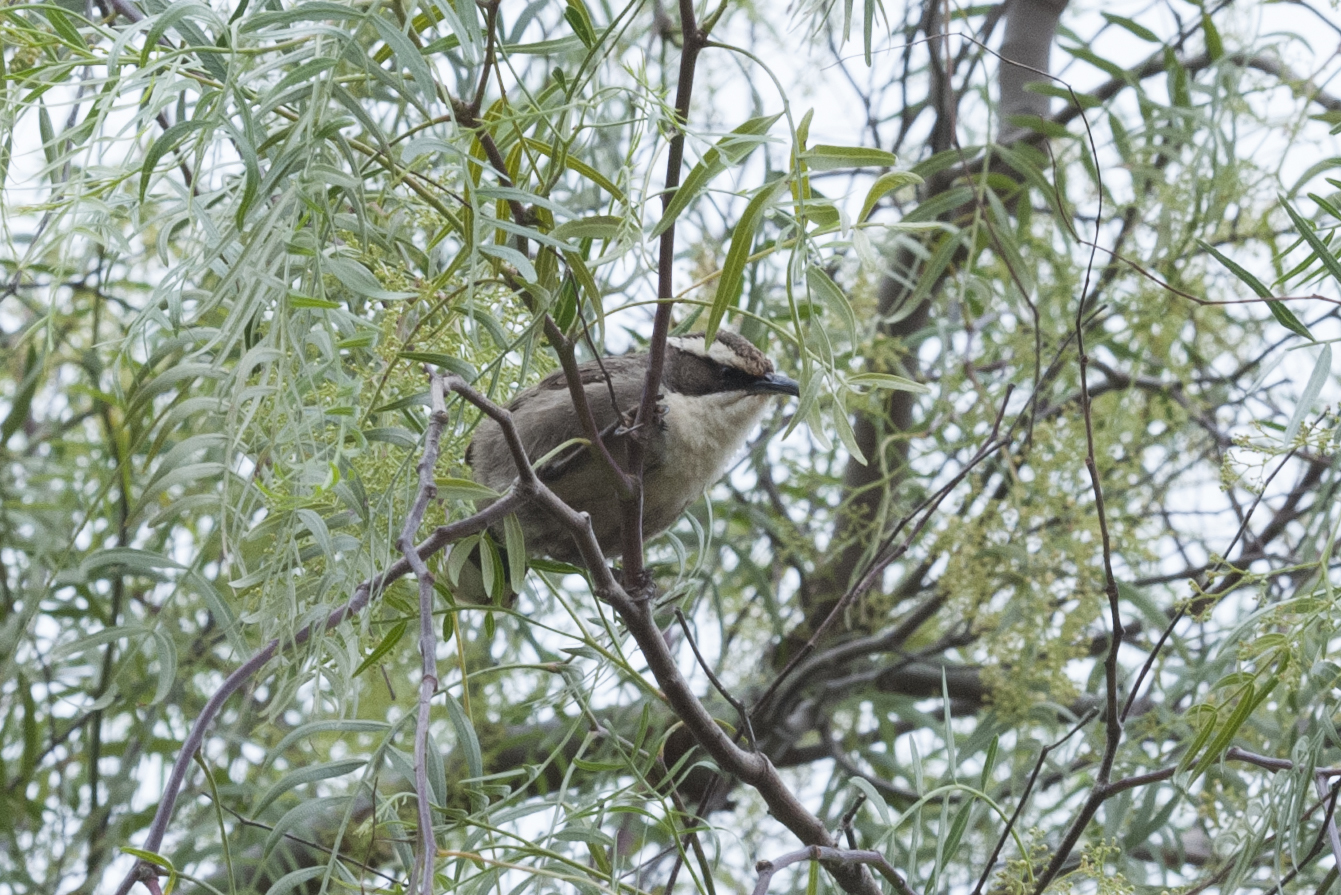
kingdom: Animalia
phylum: Chordata
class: Aves
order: Passeriformes
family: Pomatostomidae
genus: Pomatostomus
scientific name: Pomatostomus superciliosus
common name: White-browed babbler
